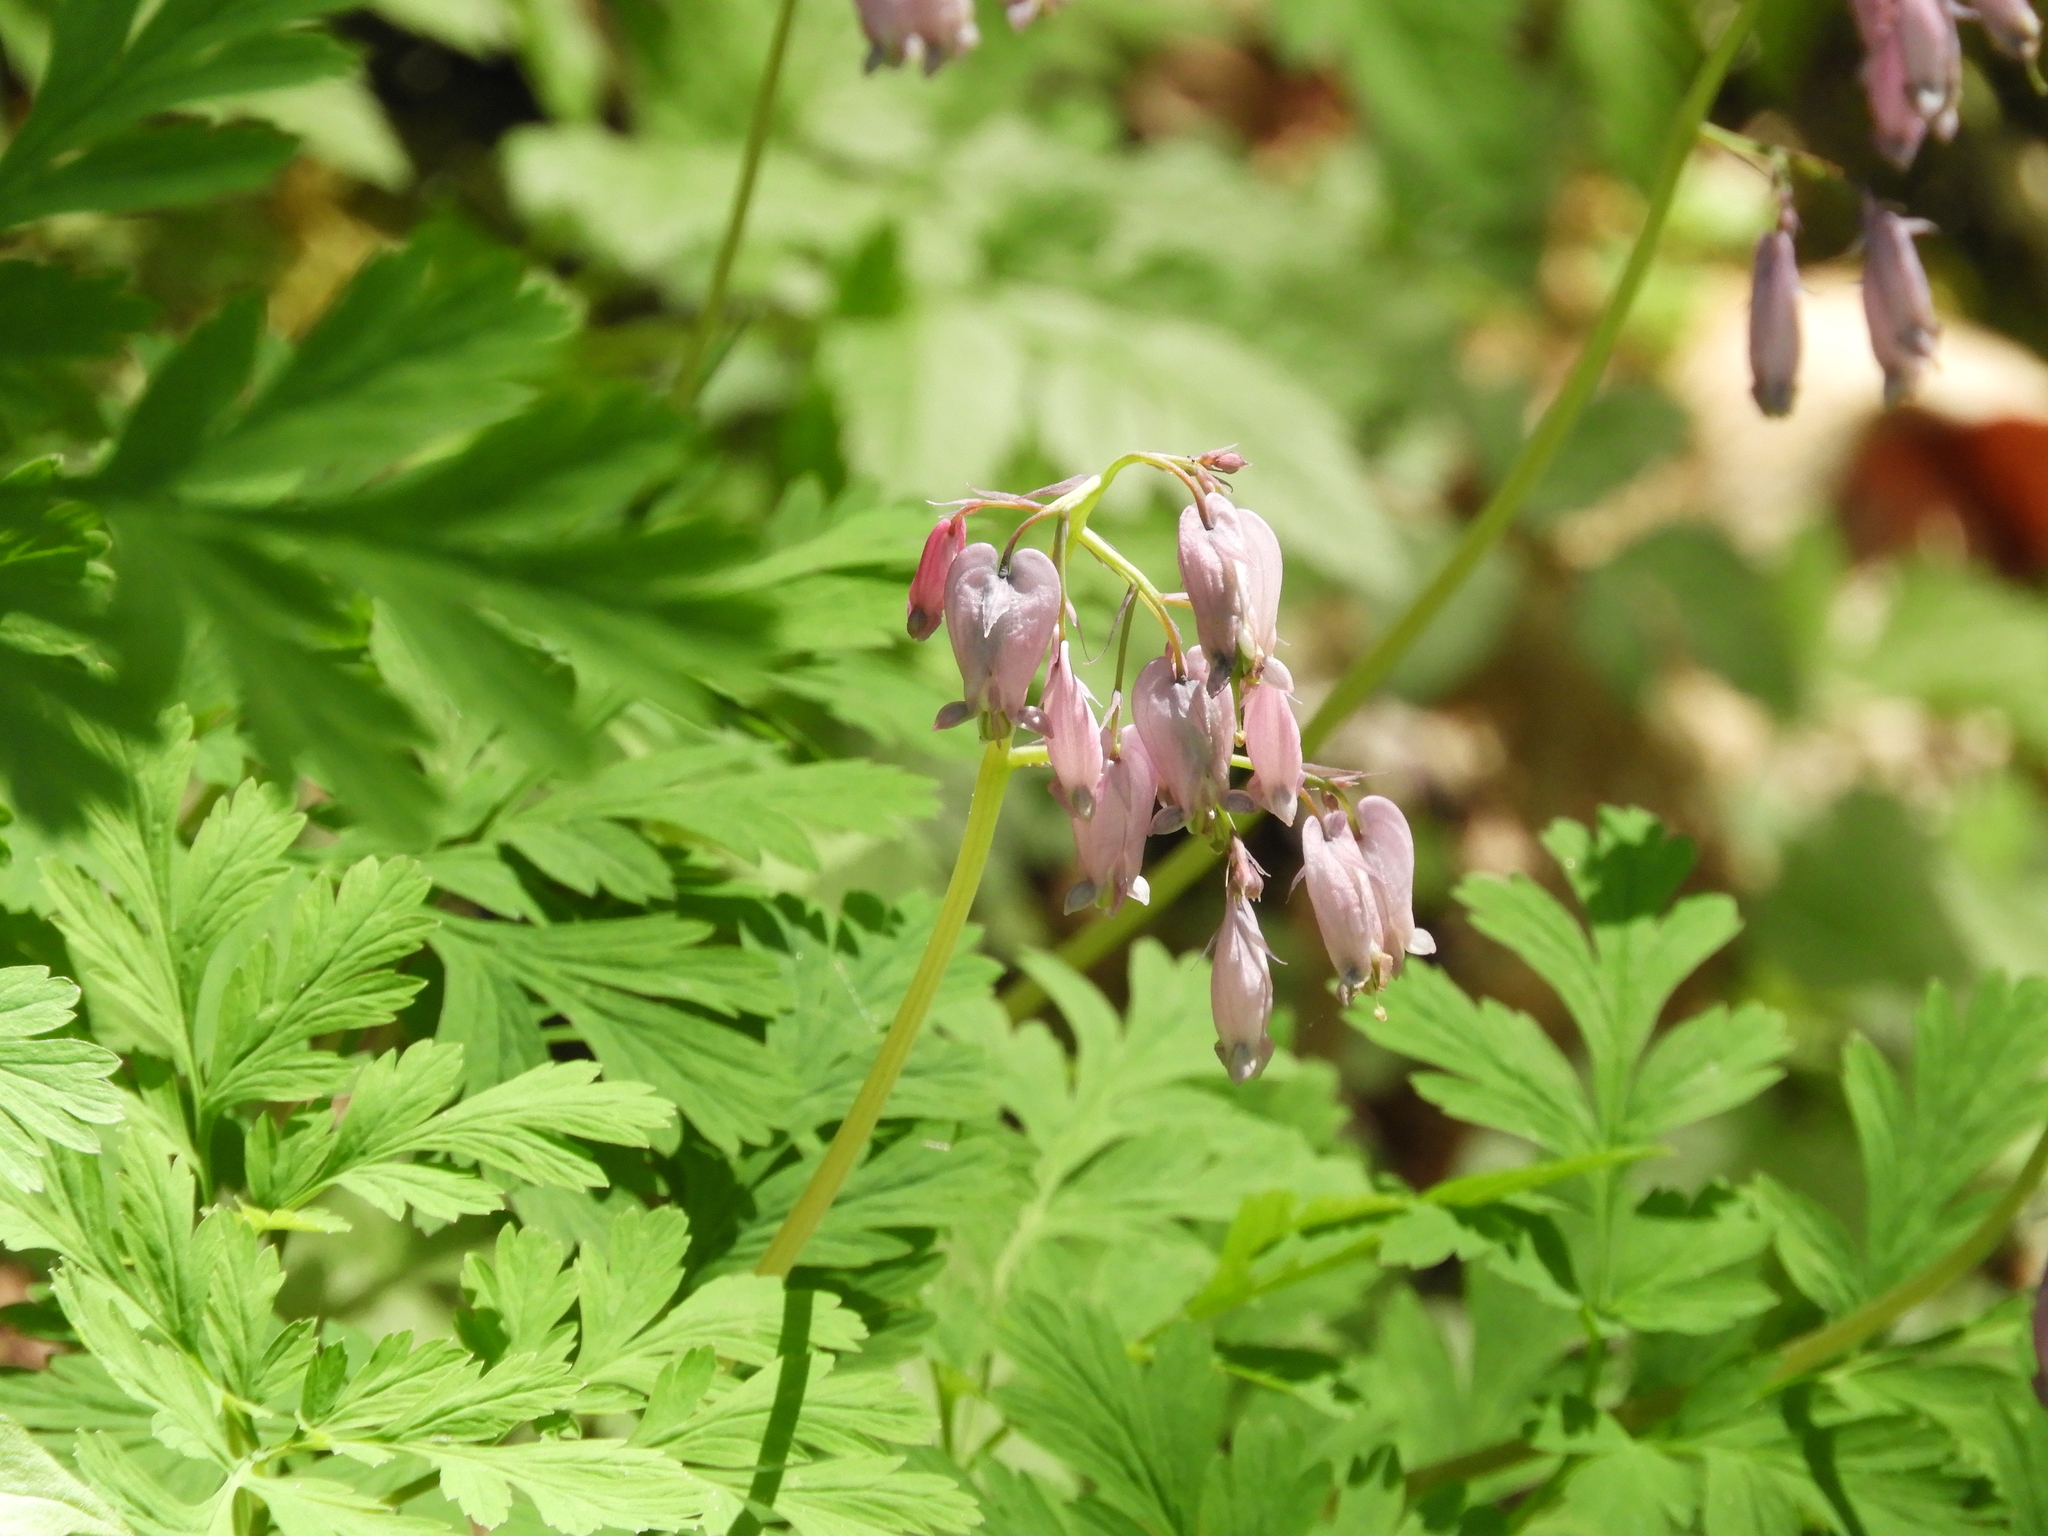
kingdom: Plantae
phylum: Tracheophyta
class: Magnoliopsida
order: Ranunculales
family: Papaveraceae
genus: Dicentra
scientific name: Dicentra formosa
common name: Bleeding-heart
